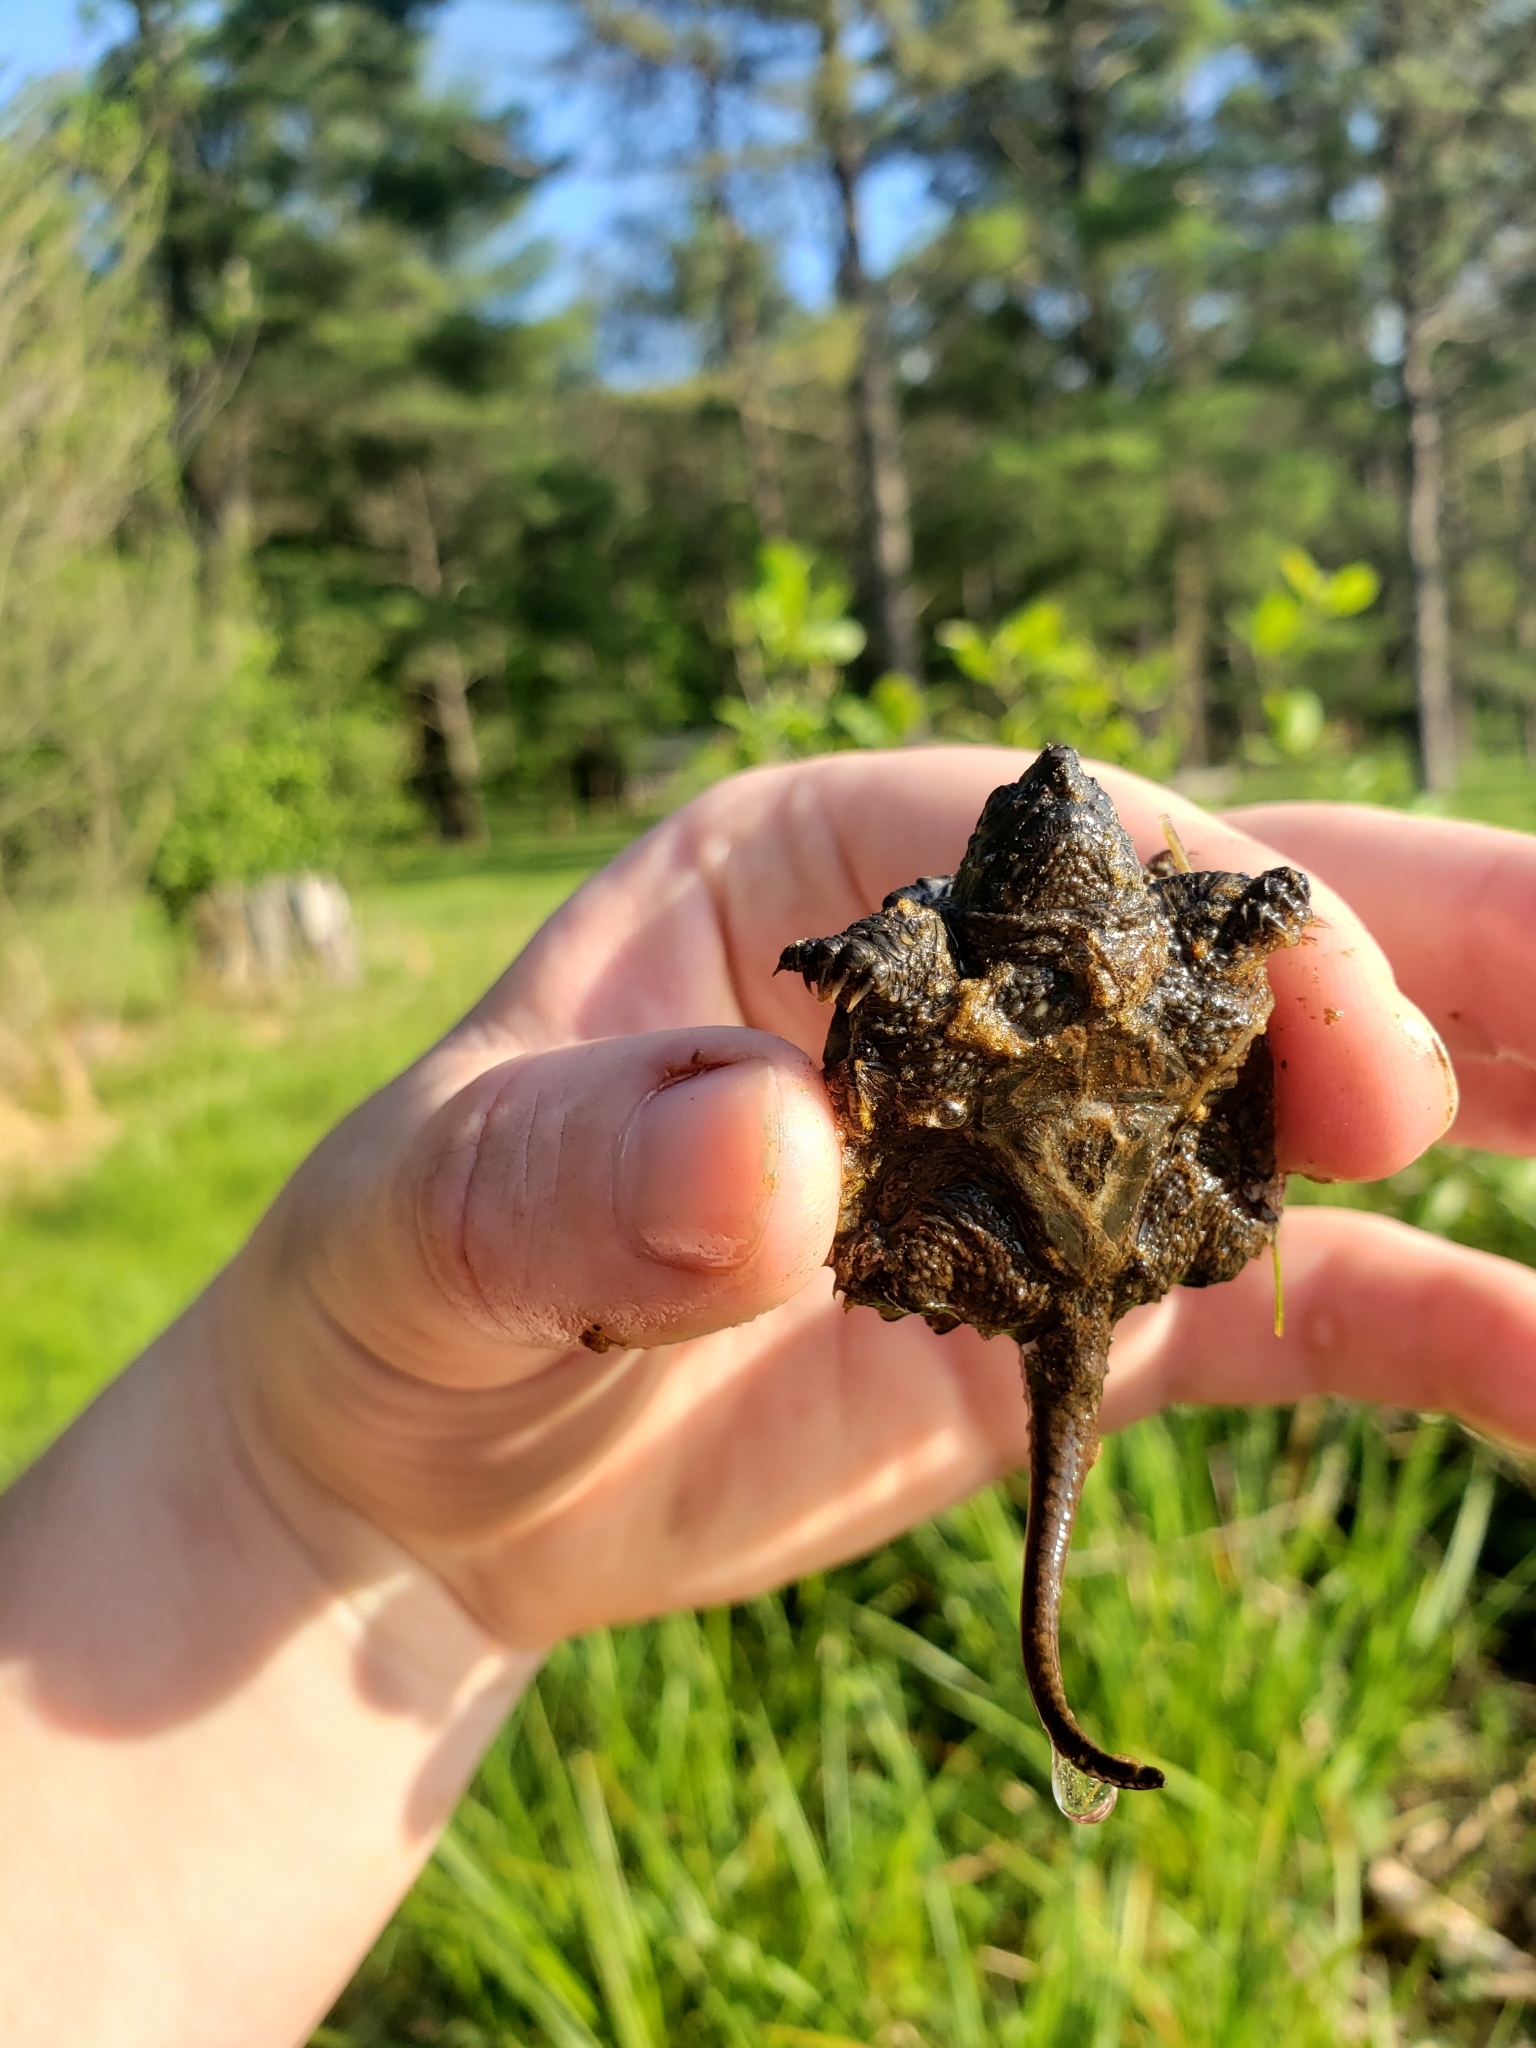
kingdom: Animalia
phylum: Chordata
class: Testudines
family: Chelydridae
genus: Chelydra
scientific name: Chelydra serpentina
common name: Common snapping turtle
